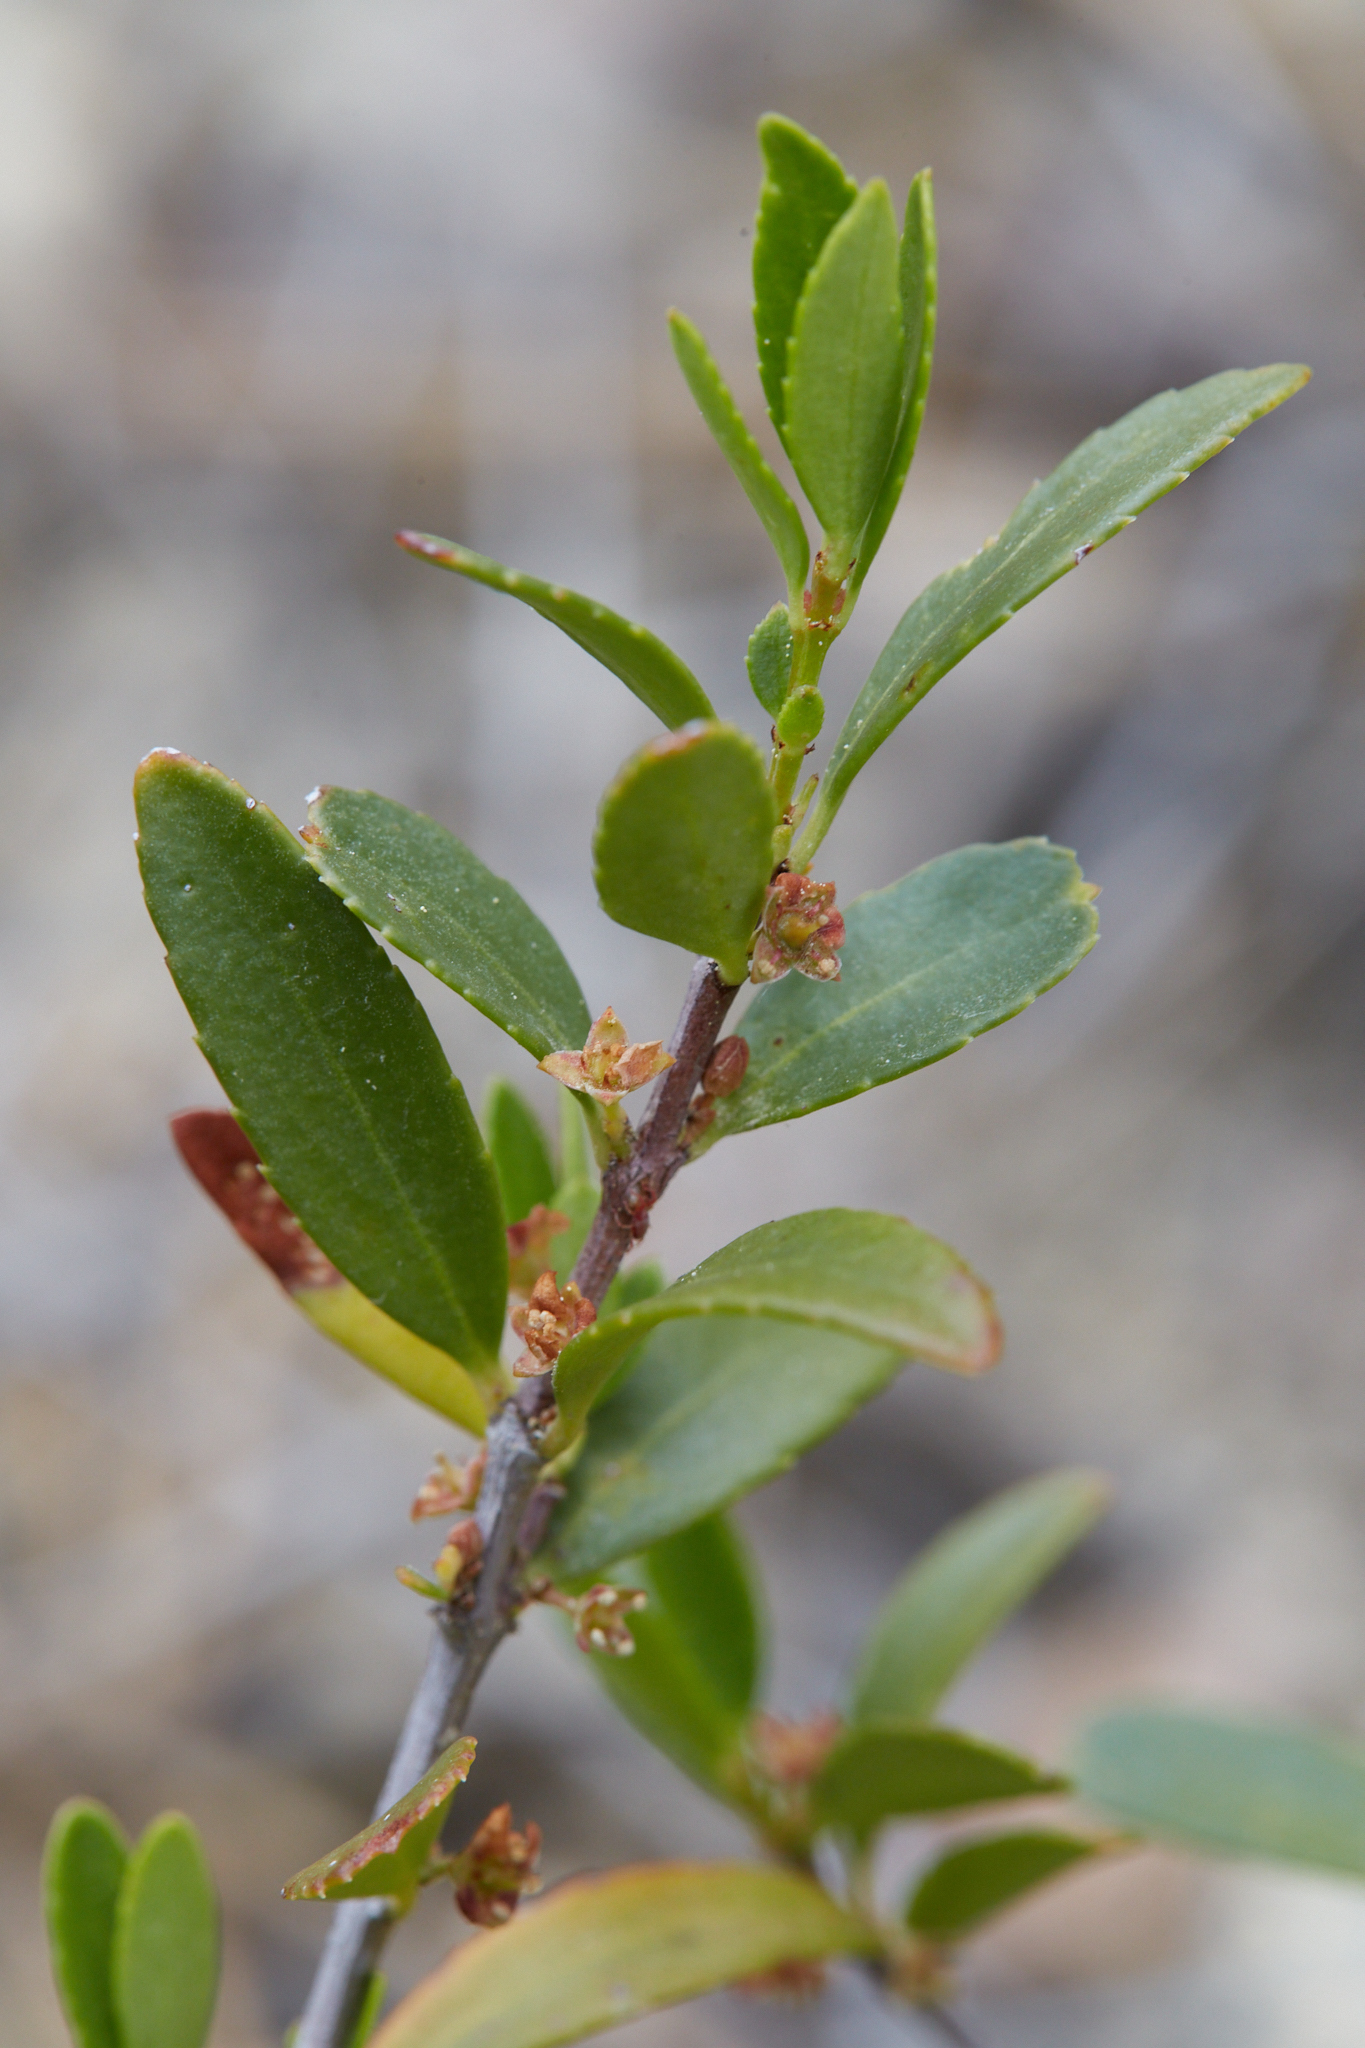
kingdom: Plantae
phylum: Tracheophyta
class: Magnoliopsida
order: Celastrales
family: Celastraceae
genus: Paxistima
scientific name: Paxistima myrsinites
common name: Mountain-lover
